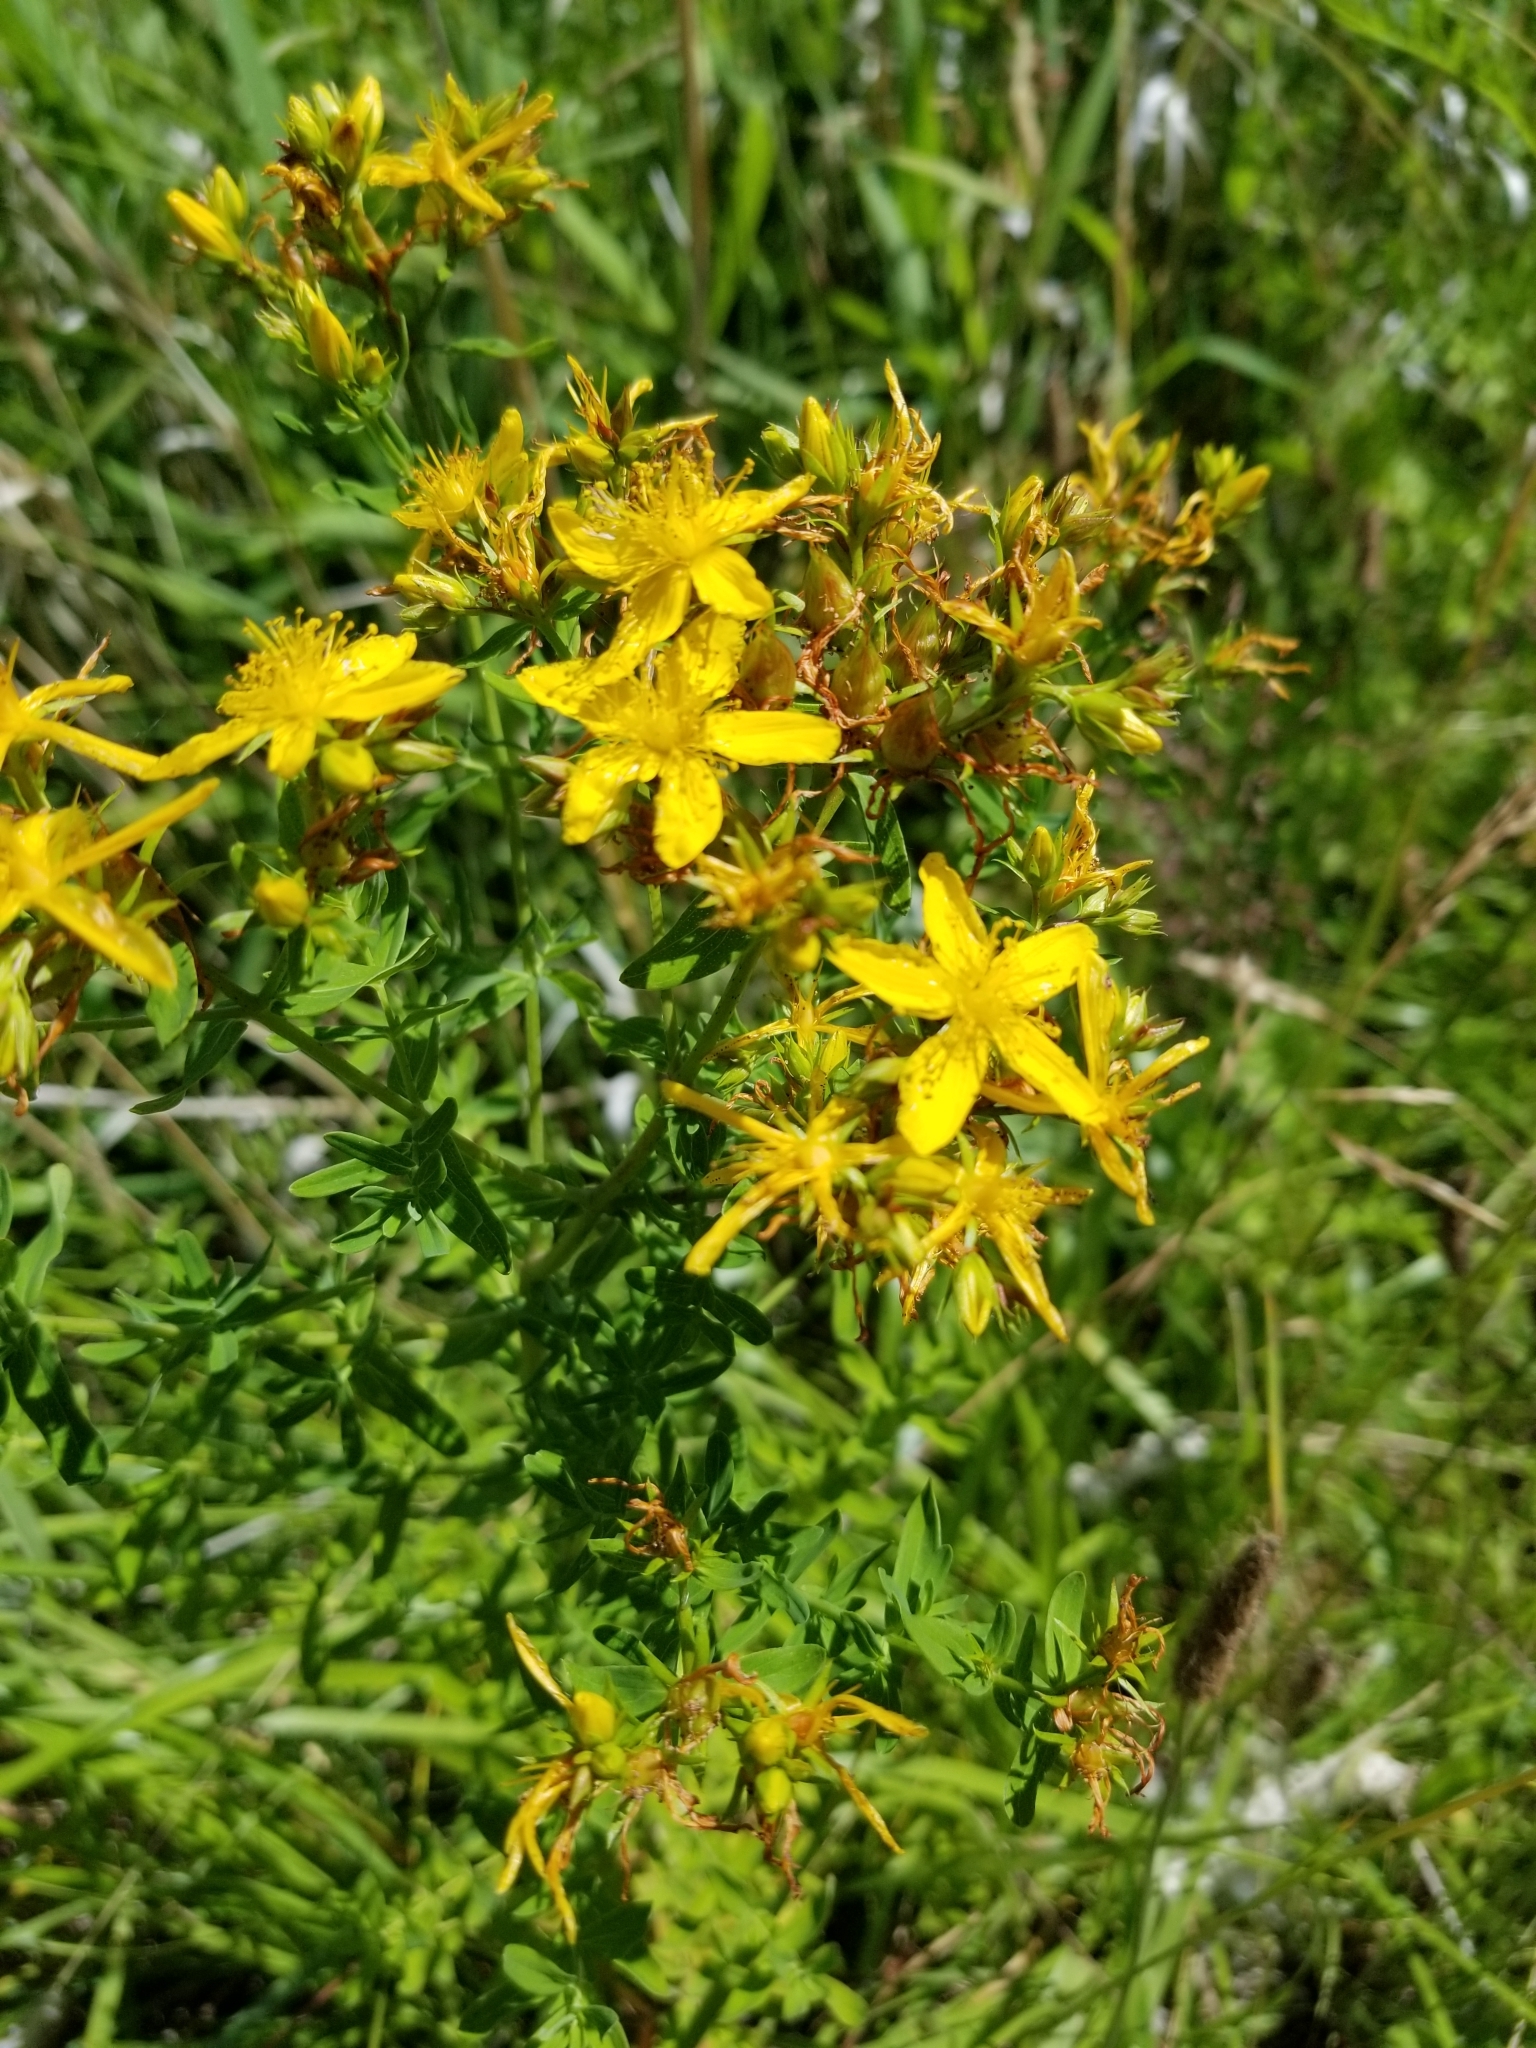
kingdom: Plantae
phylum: Tracheophyta
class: Magnoliopsida
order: Malpighiales
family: Hypericaceae
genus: Hypericum
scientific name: Hypericum perforatum
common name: Common st. johnswort
